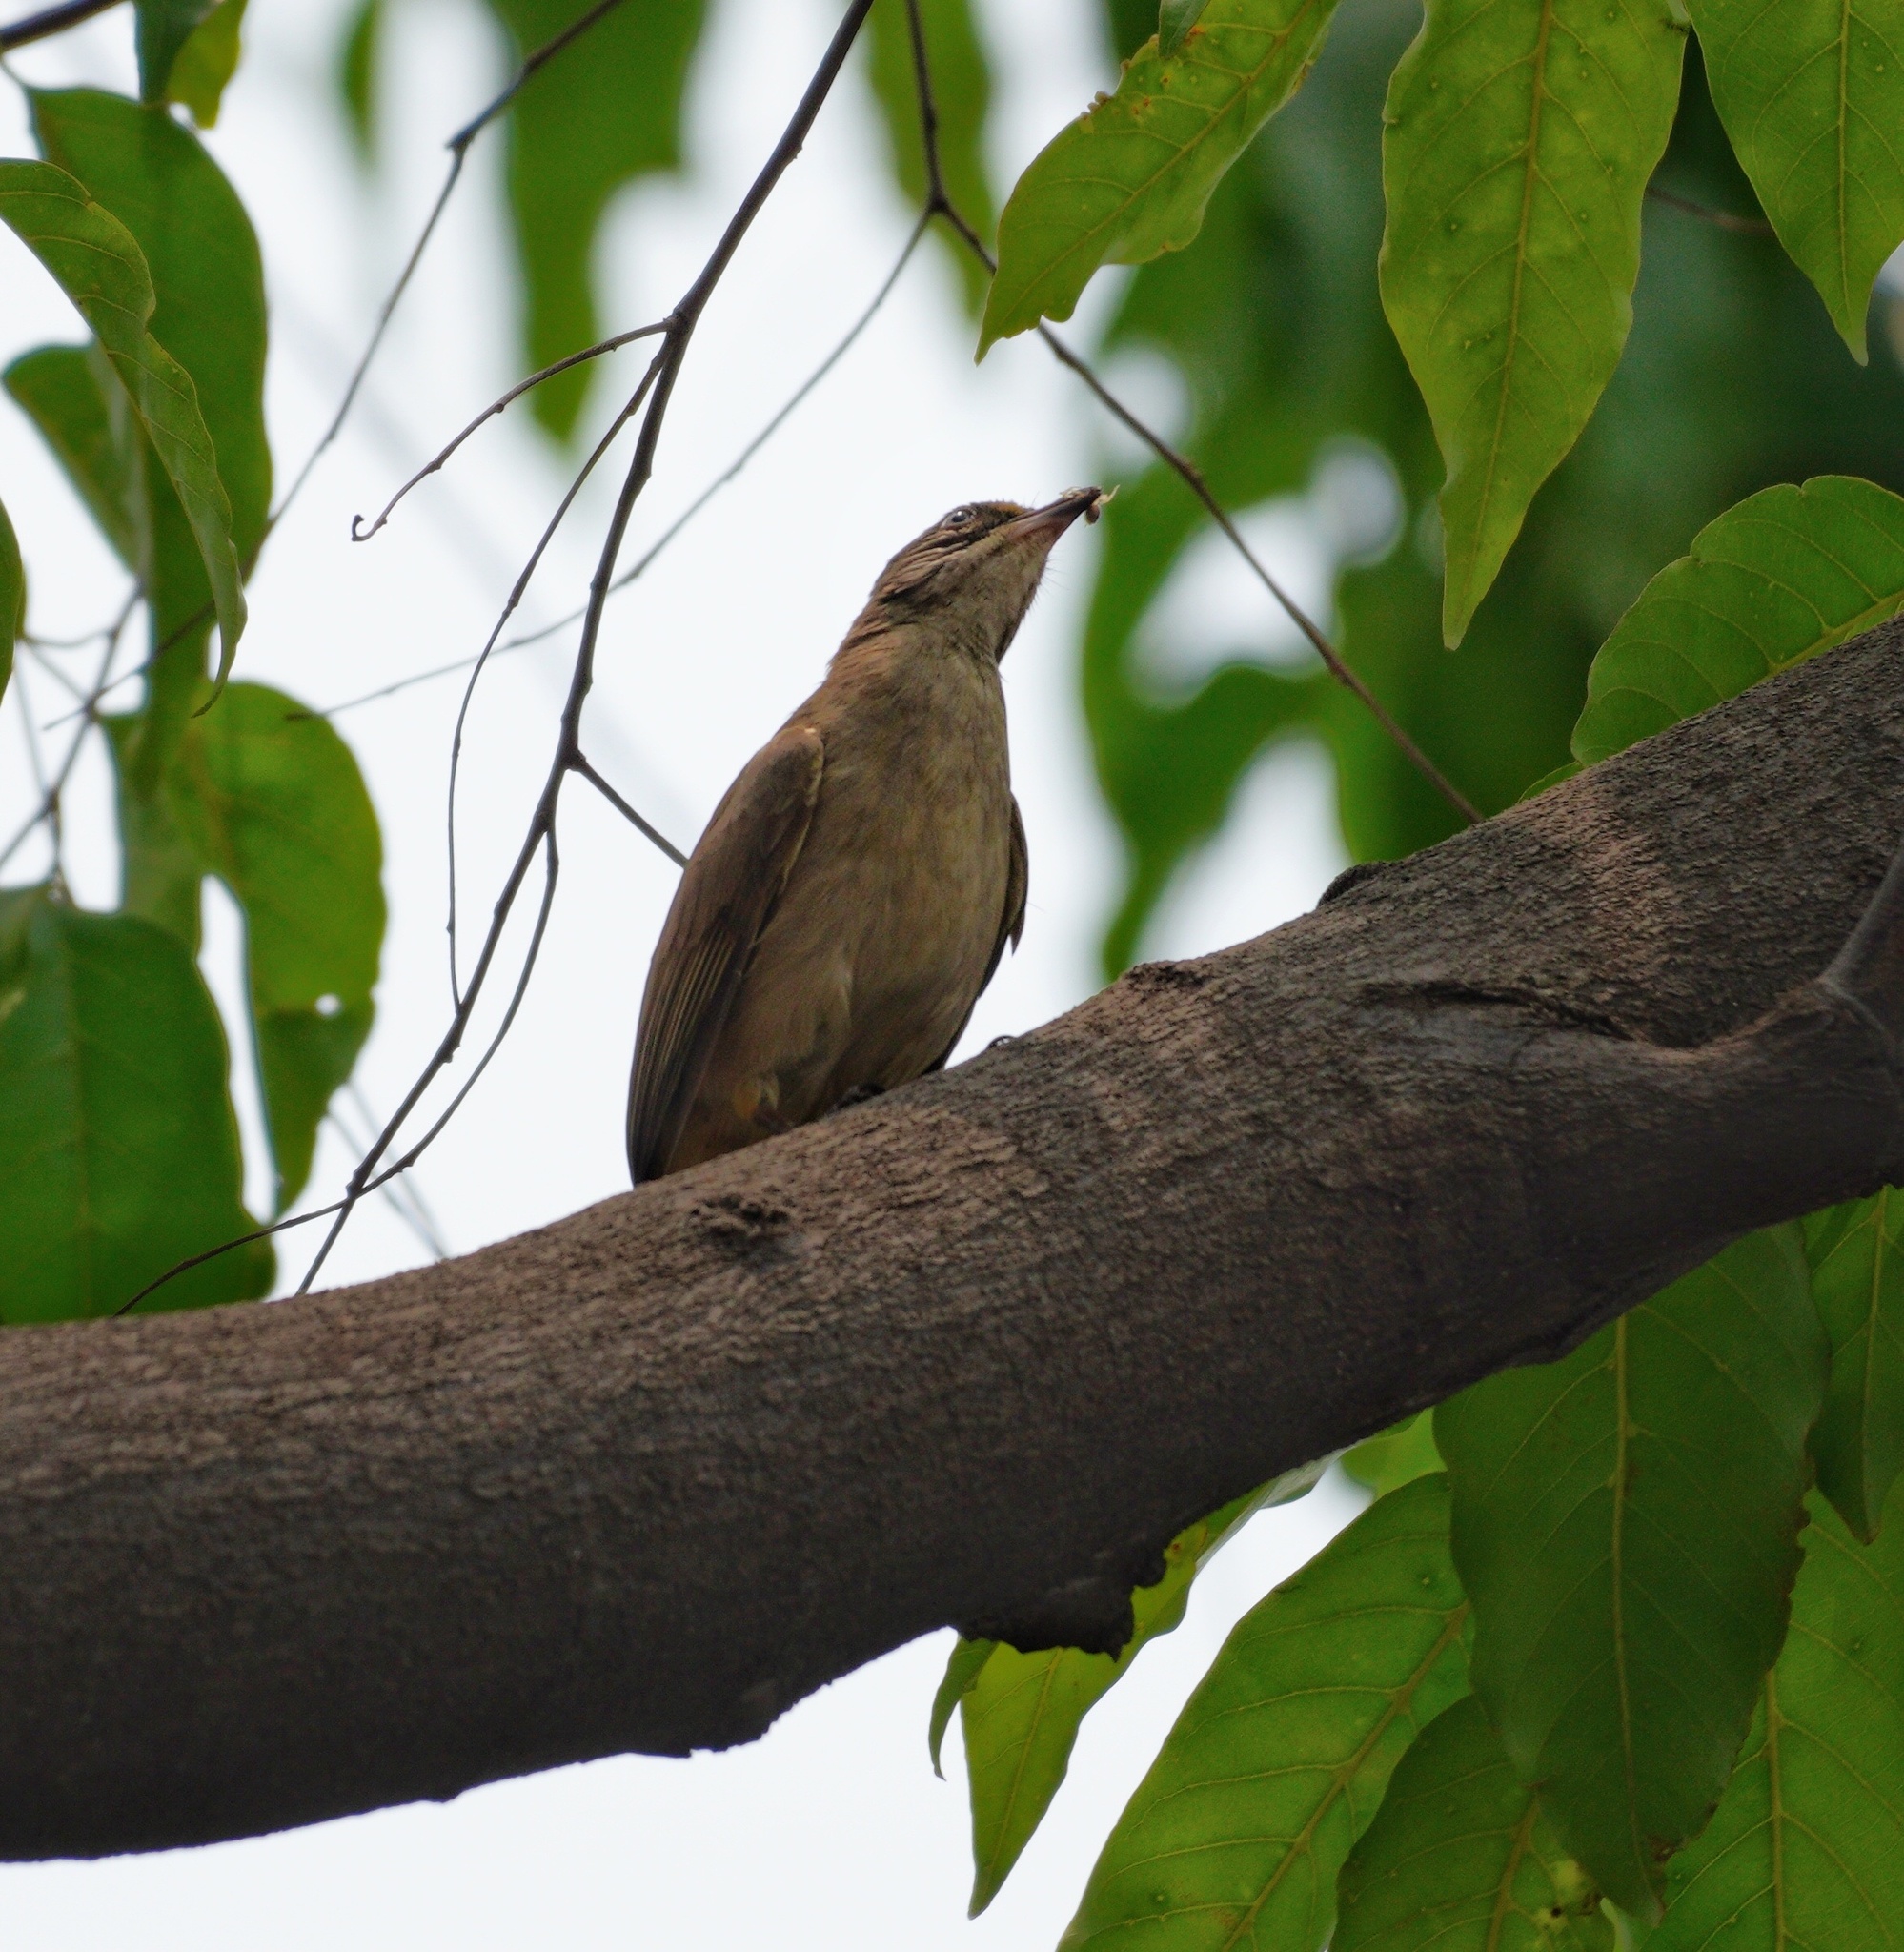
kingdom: Animalia
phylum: Chordata
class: Aves
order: Passeriformes
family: Pycnonotidae
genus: Pycnonotus
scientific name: Pycnonotus blanfordi
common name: Streak-eared bulbul
